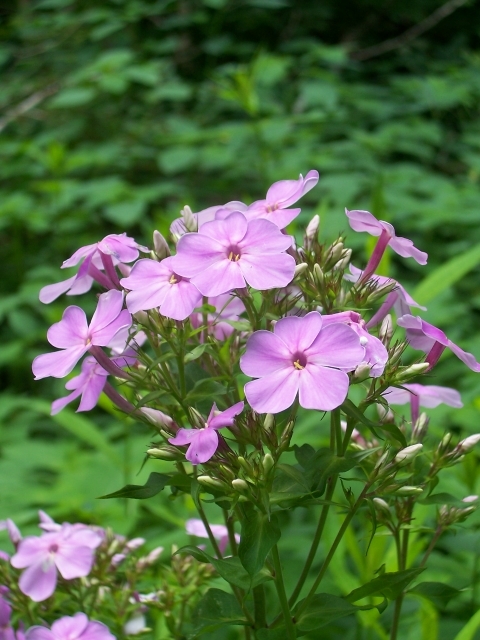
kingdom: Plantae
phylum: Tracheophyta
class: Magnoliopsida
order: Ericales
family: Polemoniaceae
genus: Phlox
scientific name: Phlox paniculata
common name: Fall phlox
